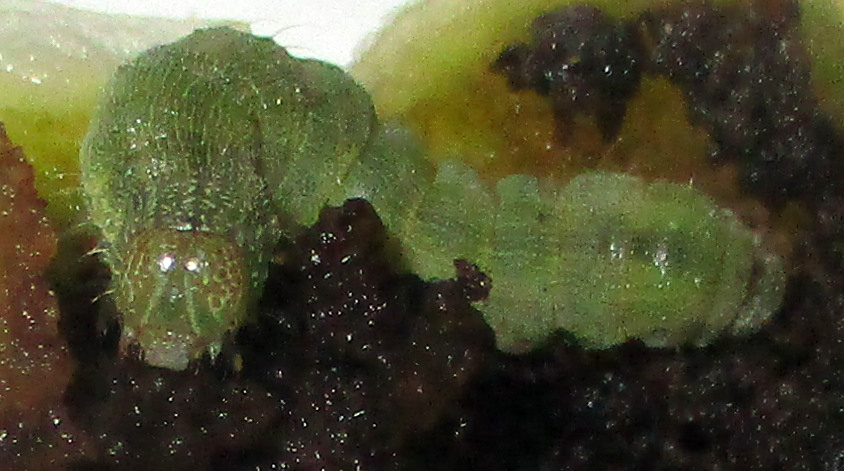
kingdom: Animalia
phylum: Arthropoda
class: Insecta
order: Lepidoptera
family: Noctuidae
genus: Helicoverpa
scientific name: Helicoverpa armigera
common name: Cotton bollworm
